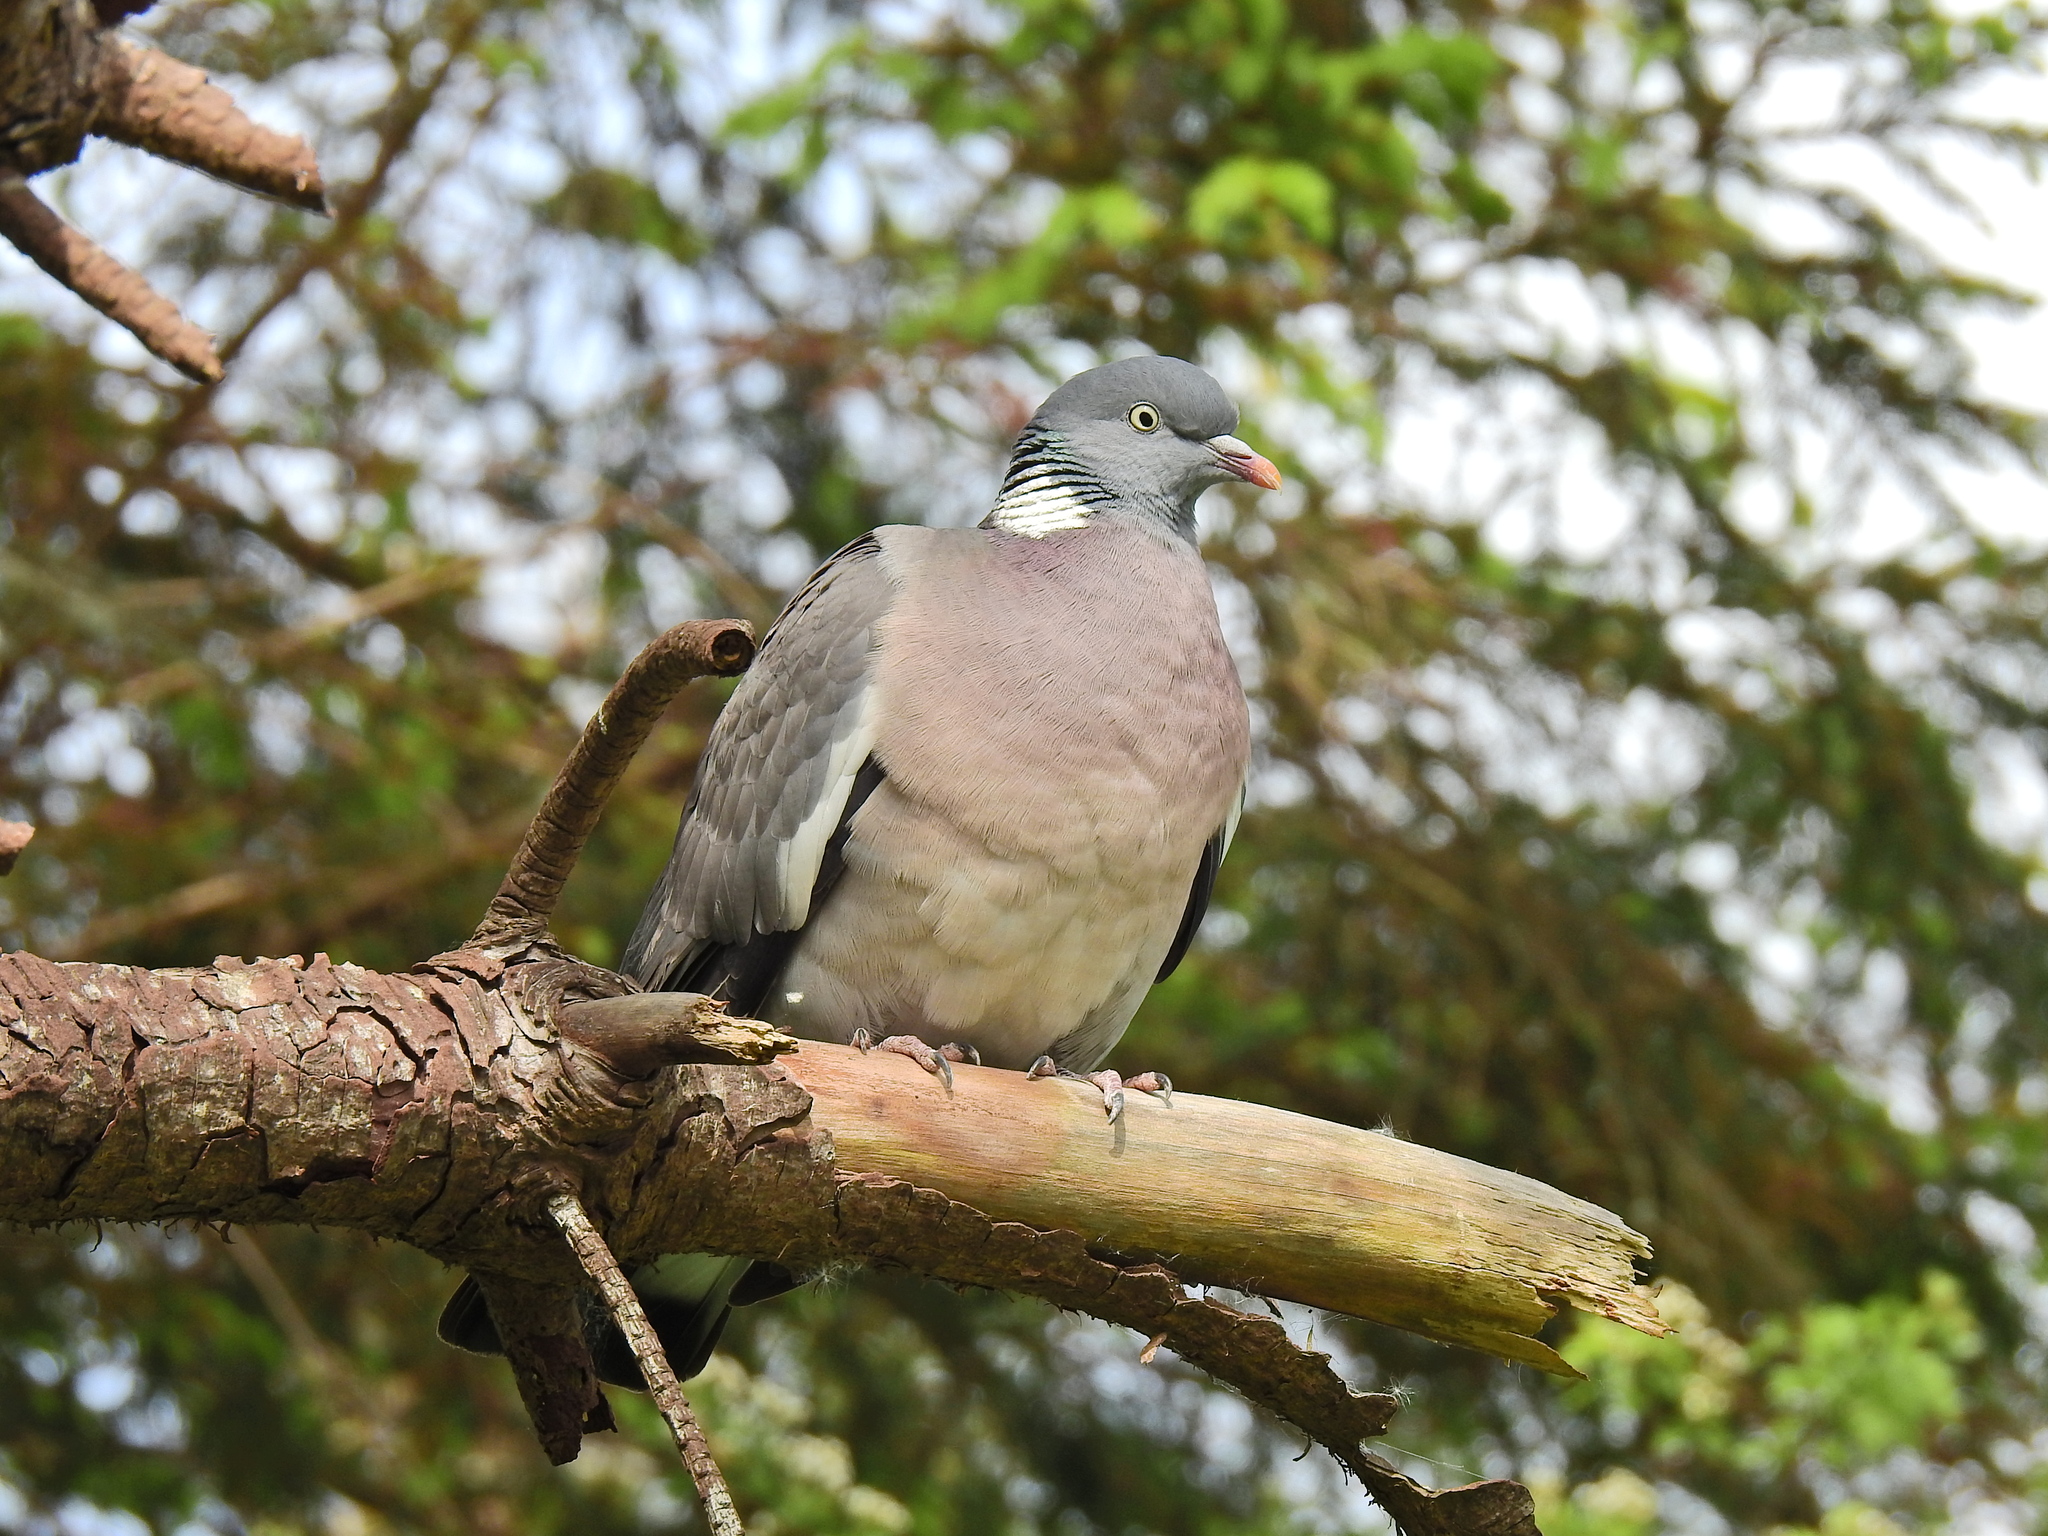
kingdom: Animalia
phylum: Chordata
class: Aves
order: Columbiformes
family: Columbidae
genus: Columba
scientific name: Columba palumbus
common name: Common wood pigeon
